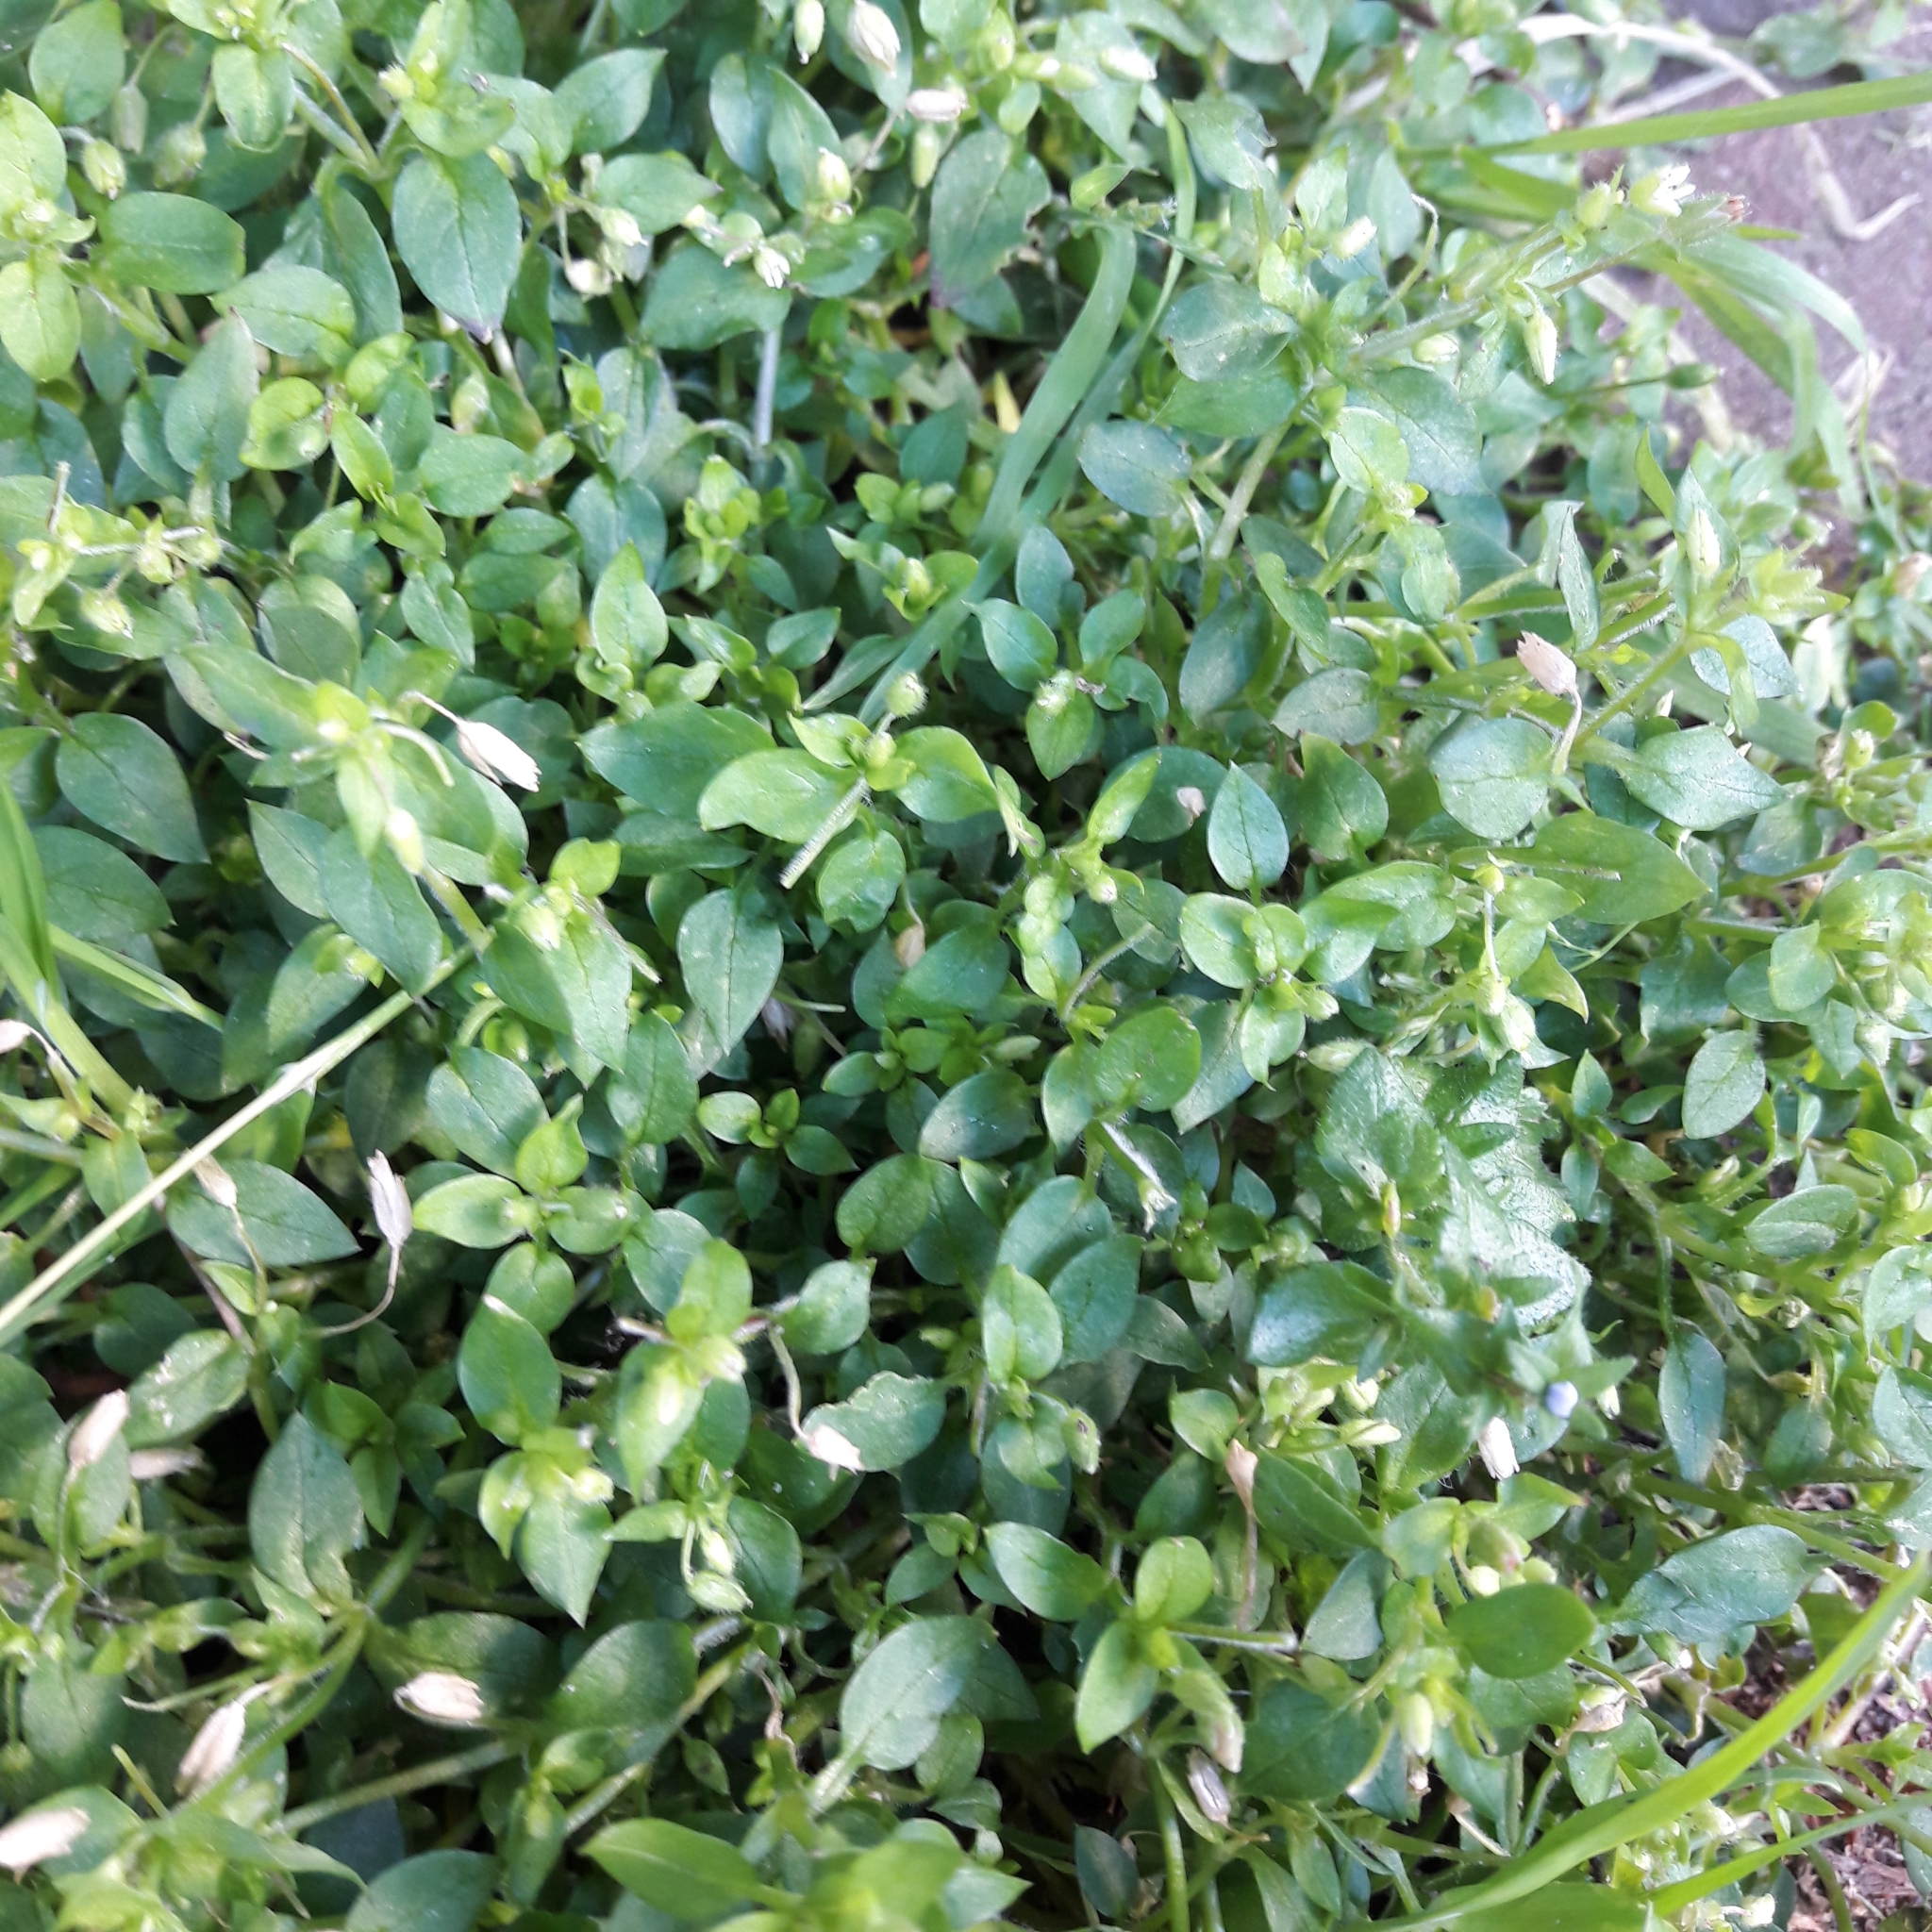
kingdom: Plantae
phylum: Tracheophyta
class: Magnoliopsida
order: Caryophyllales
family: Caryophyllaceae
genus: Stellaria
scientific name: Stellaria media
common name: Common chickweed
